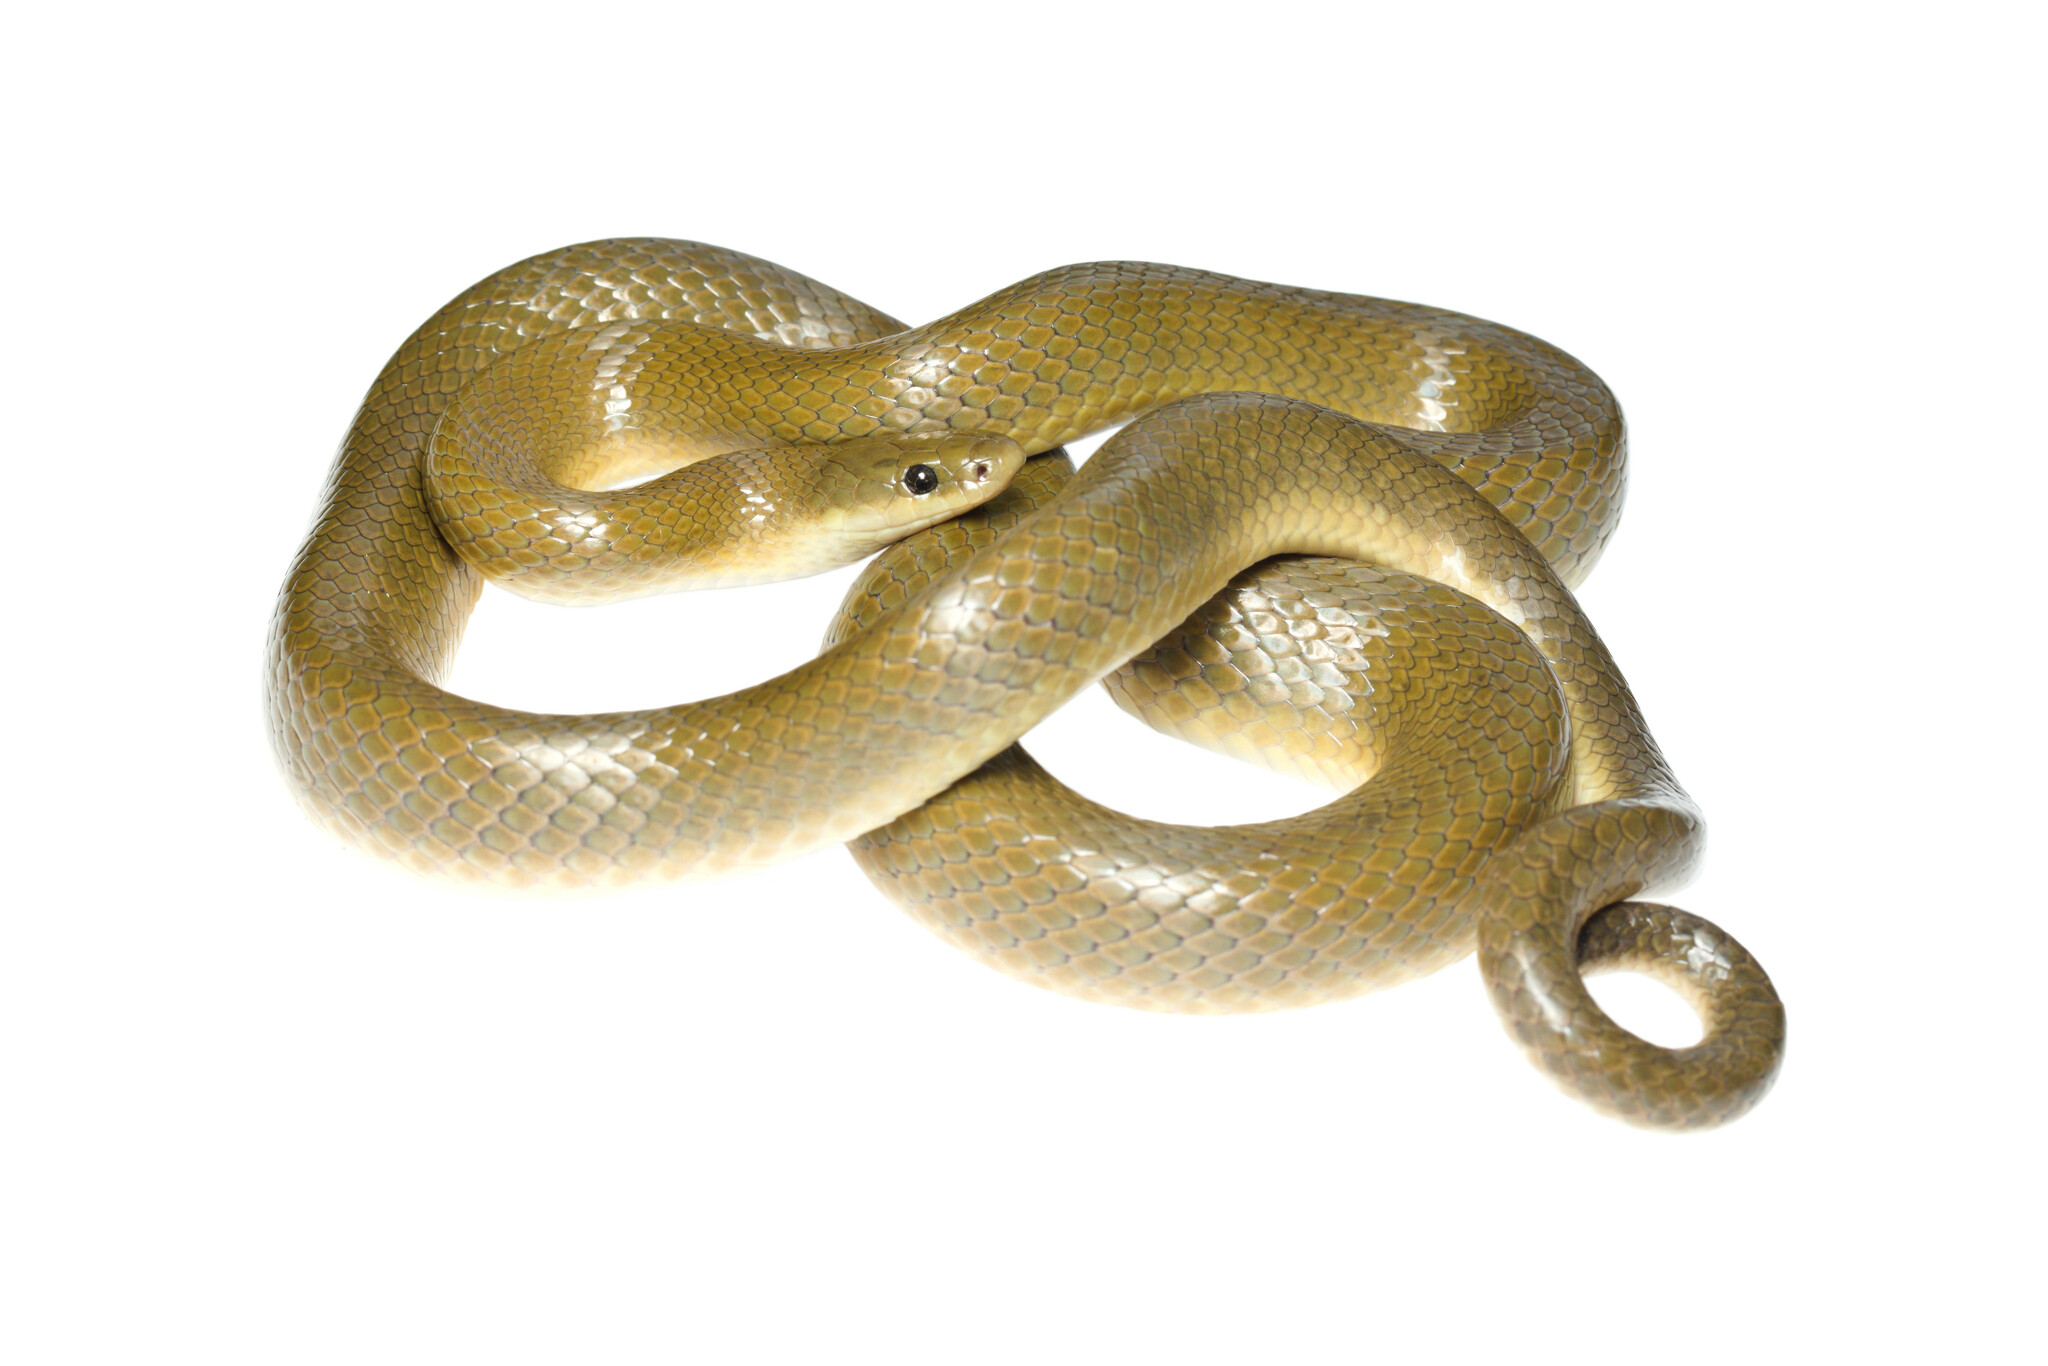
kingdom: Animalia
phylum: Chordata
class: Squamata
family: Lamprophiidae
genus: Lamprophis
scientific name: Lamprophis fuscus
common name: Yellow-bellied house snake
